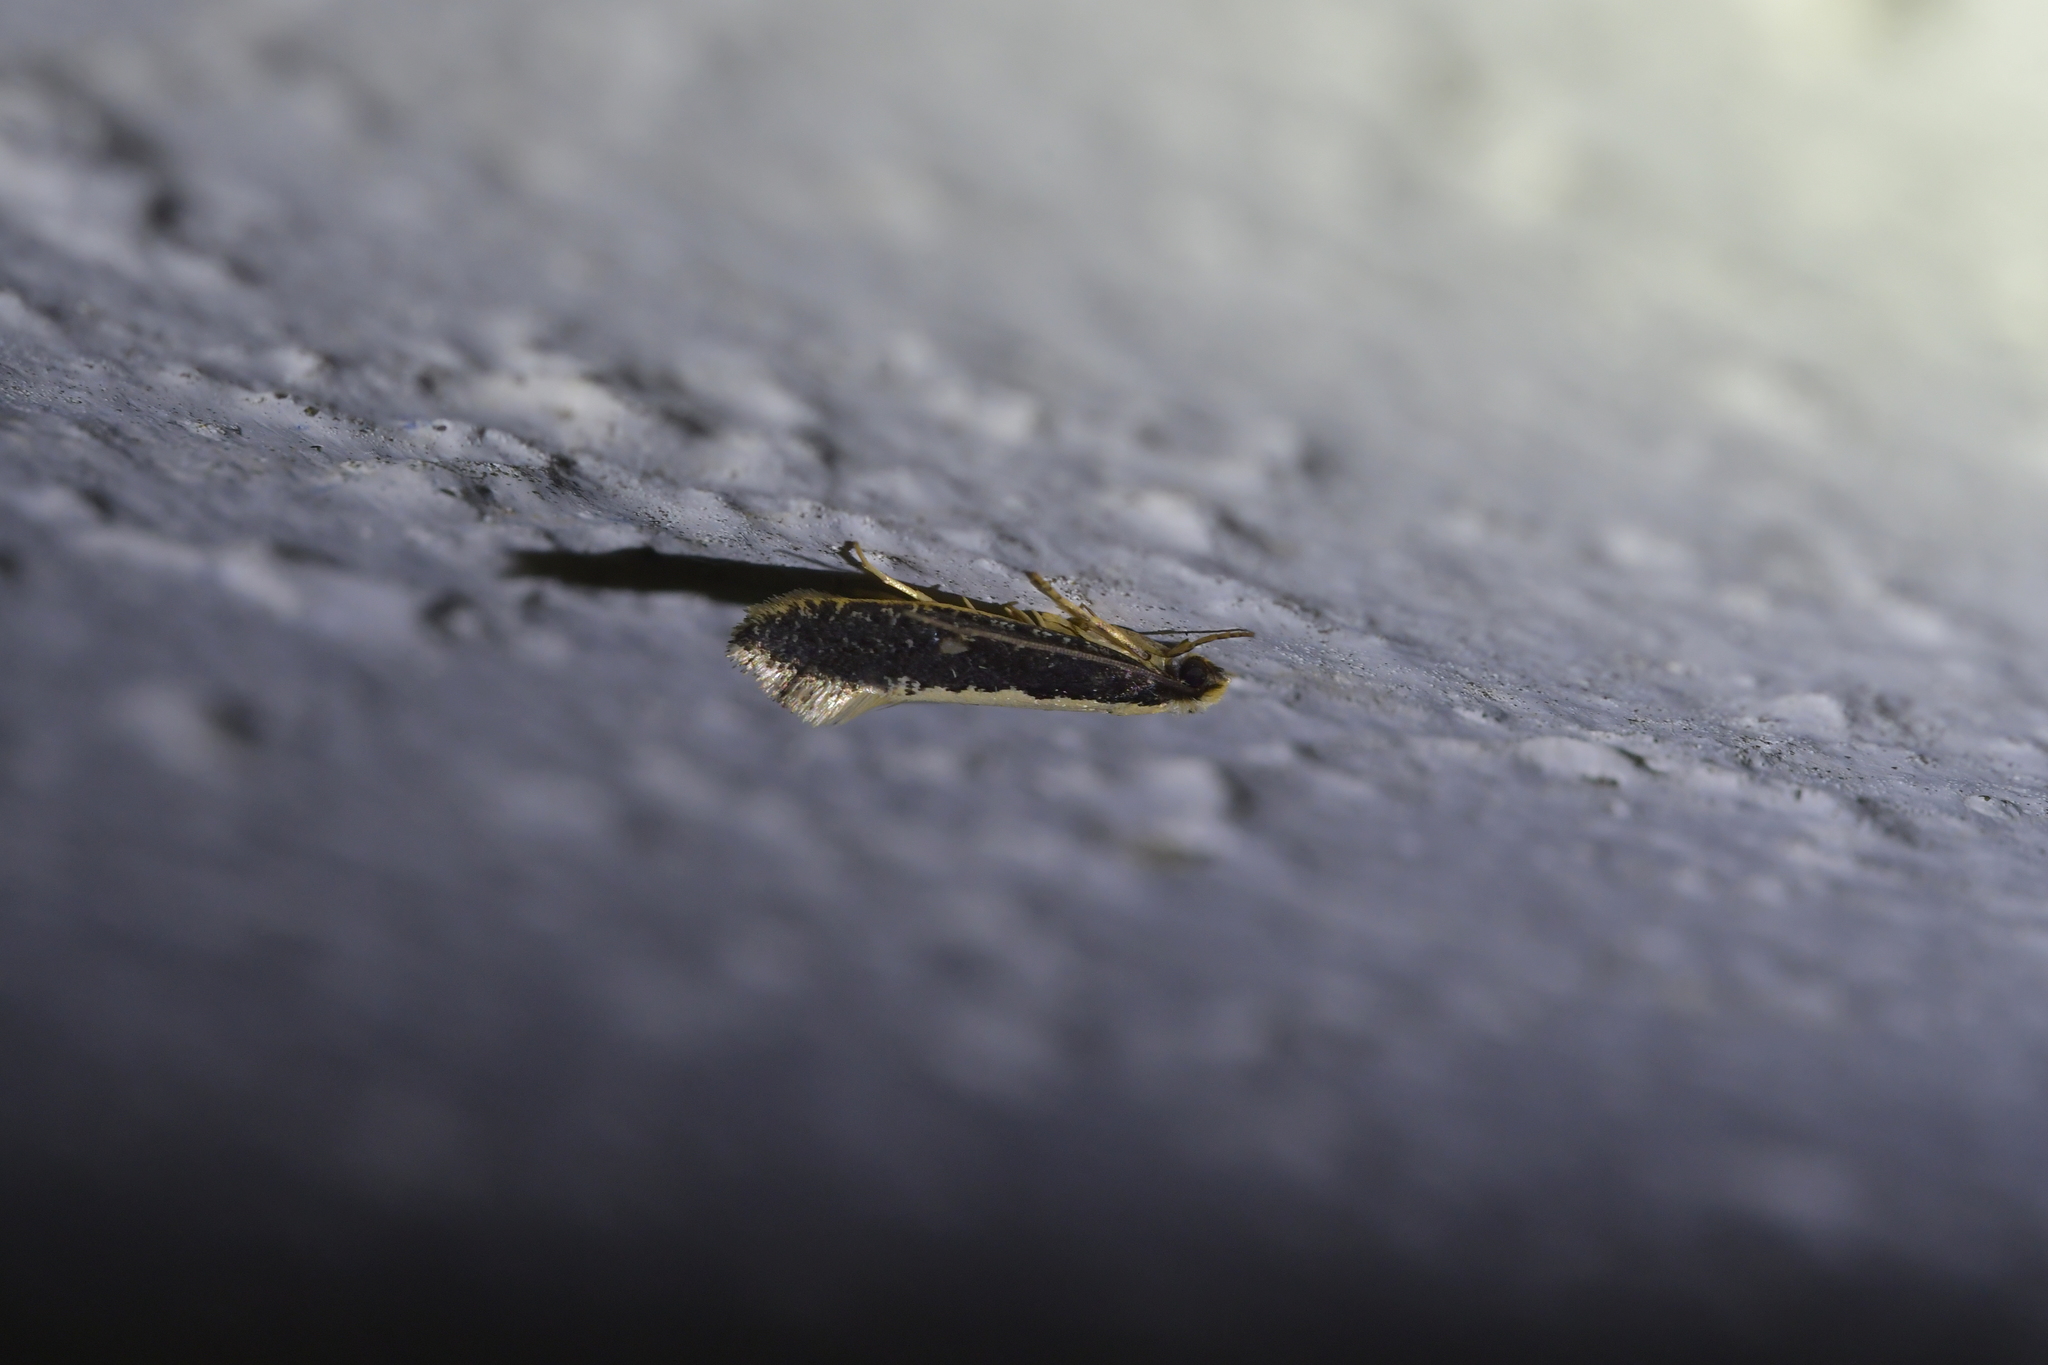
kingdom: Animalia
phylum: Arthropoda
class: Insecta
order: Lepidoptera
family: Tineidae
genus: Monopis
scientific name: Monopis ethelella
